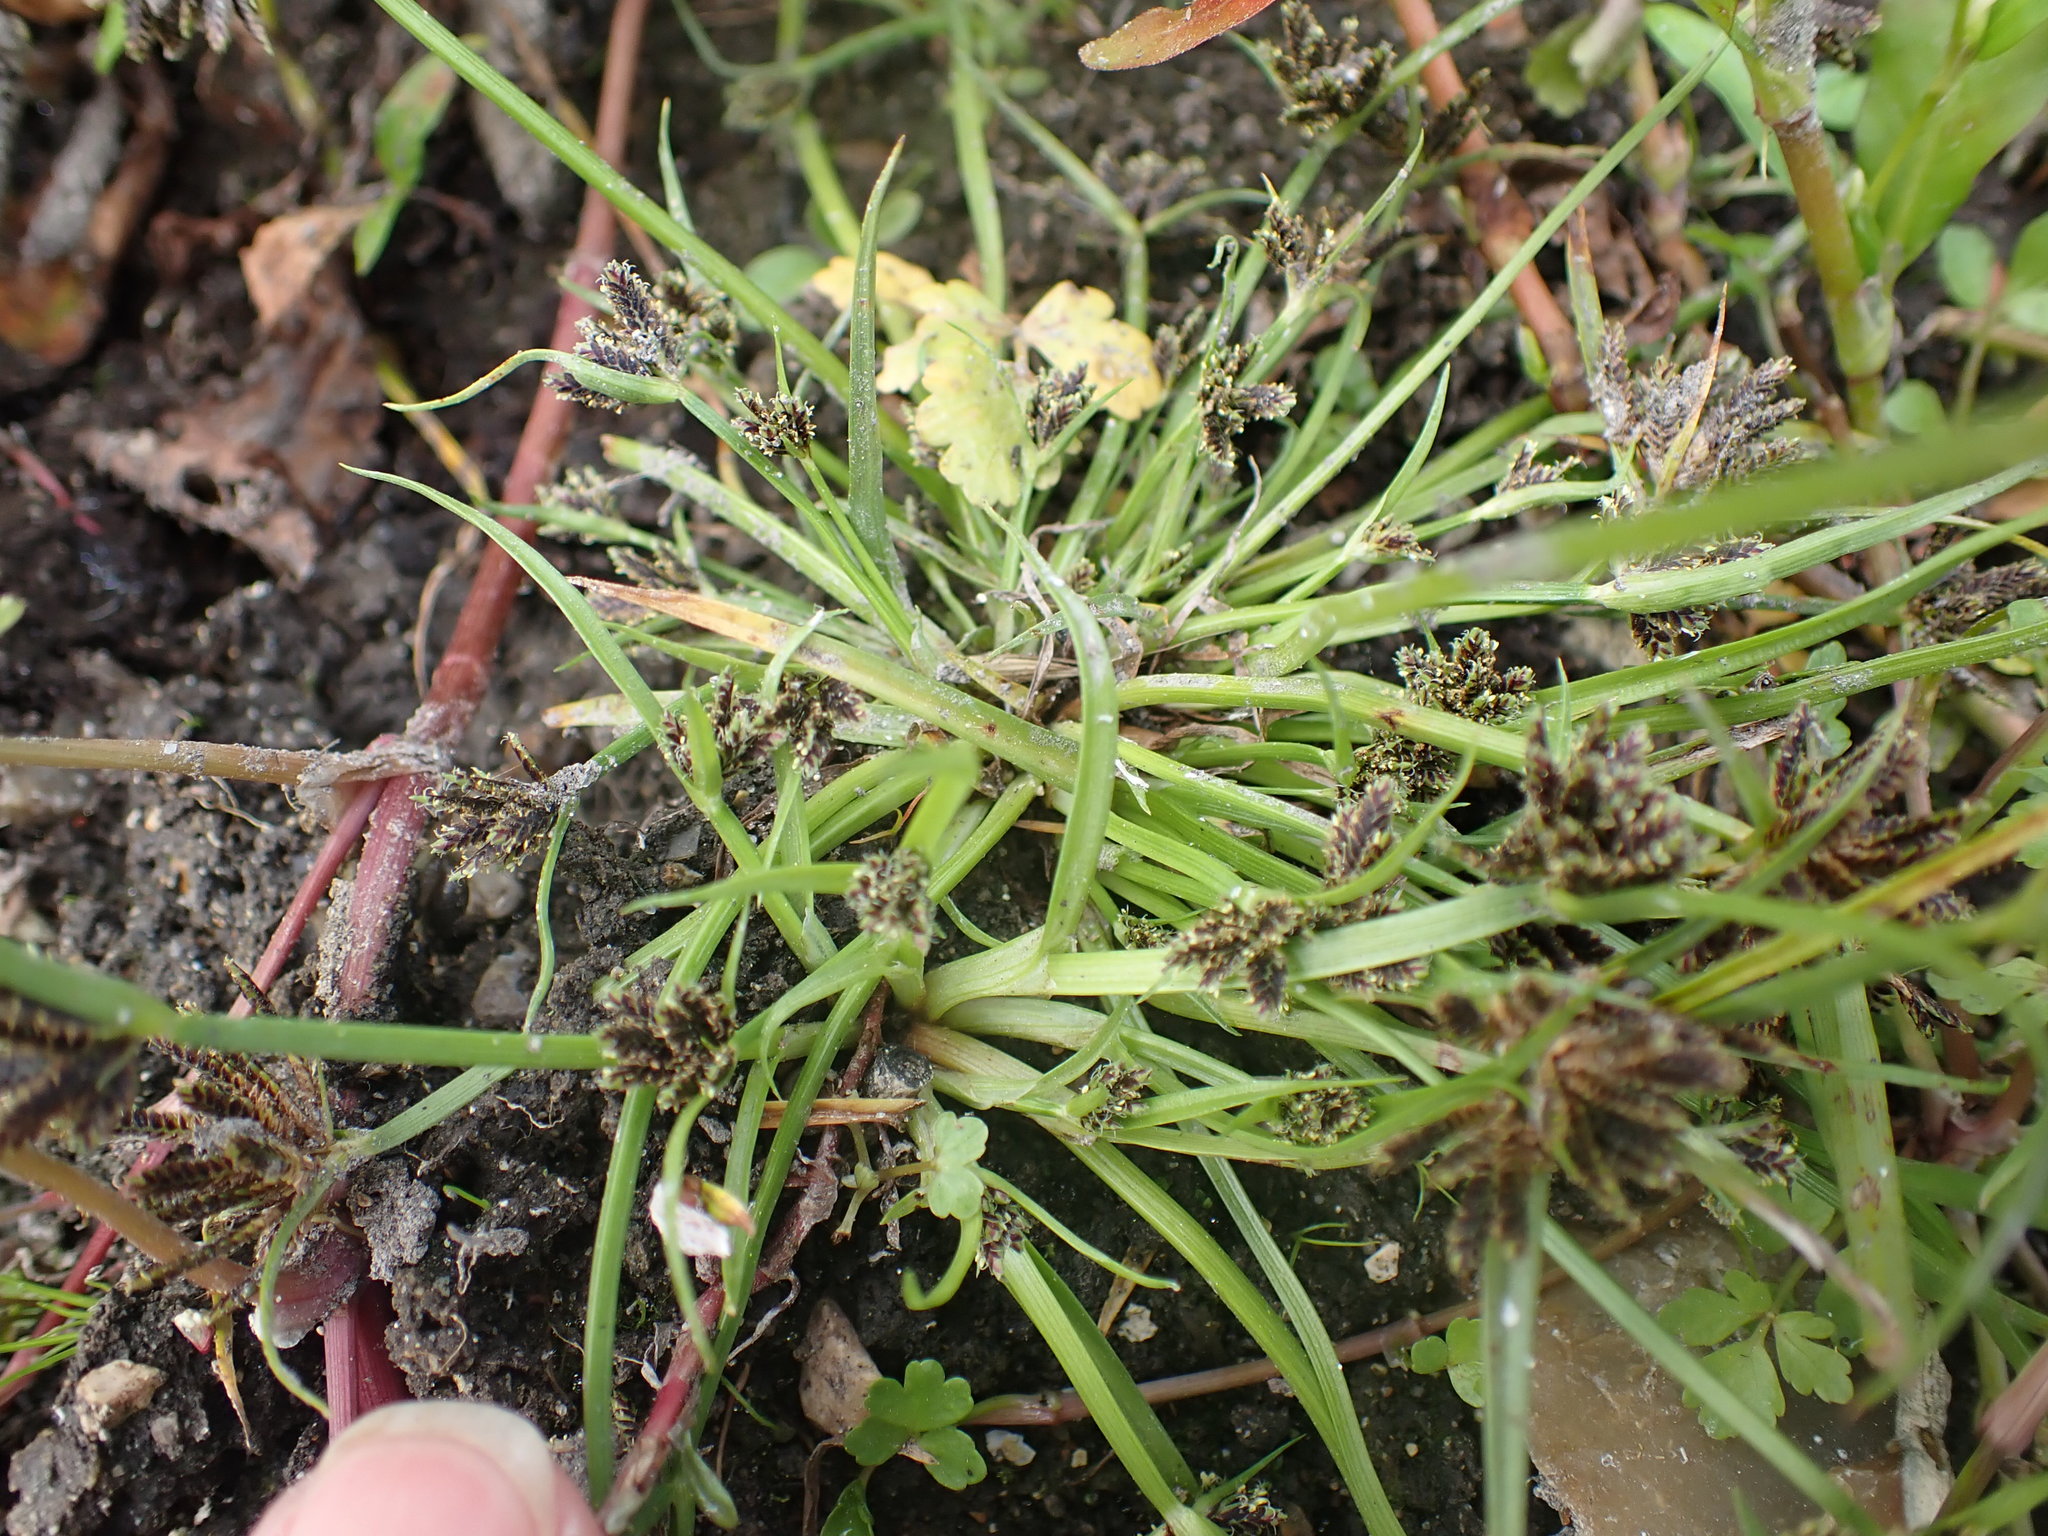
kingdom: Plantae
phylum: Tracheophyta
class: Liliopsida
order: Poales
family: Cyperaceae
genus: Cyperus
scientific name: Cyperus fuscus
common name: Brown galingale
